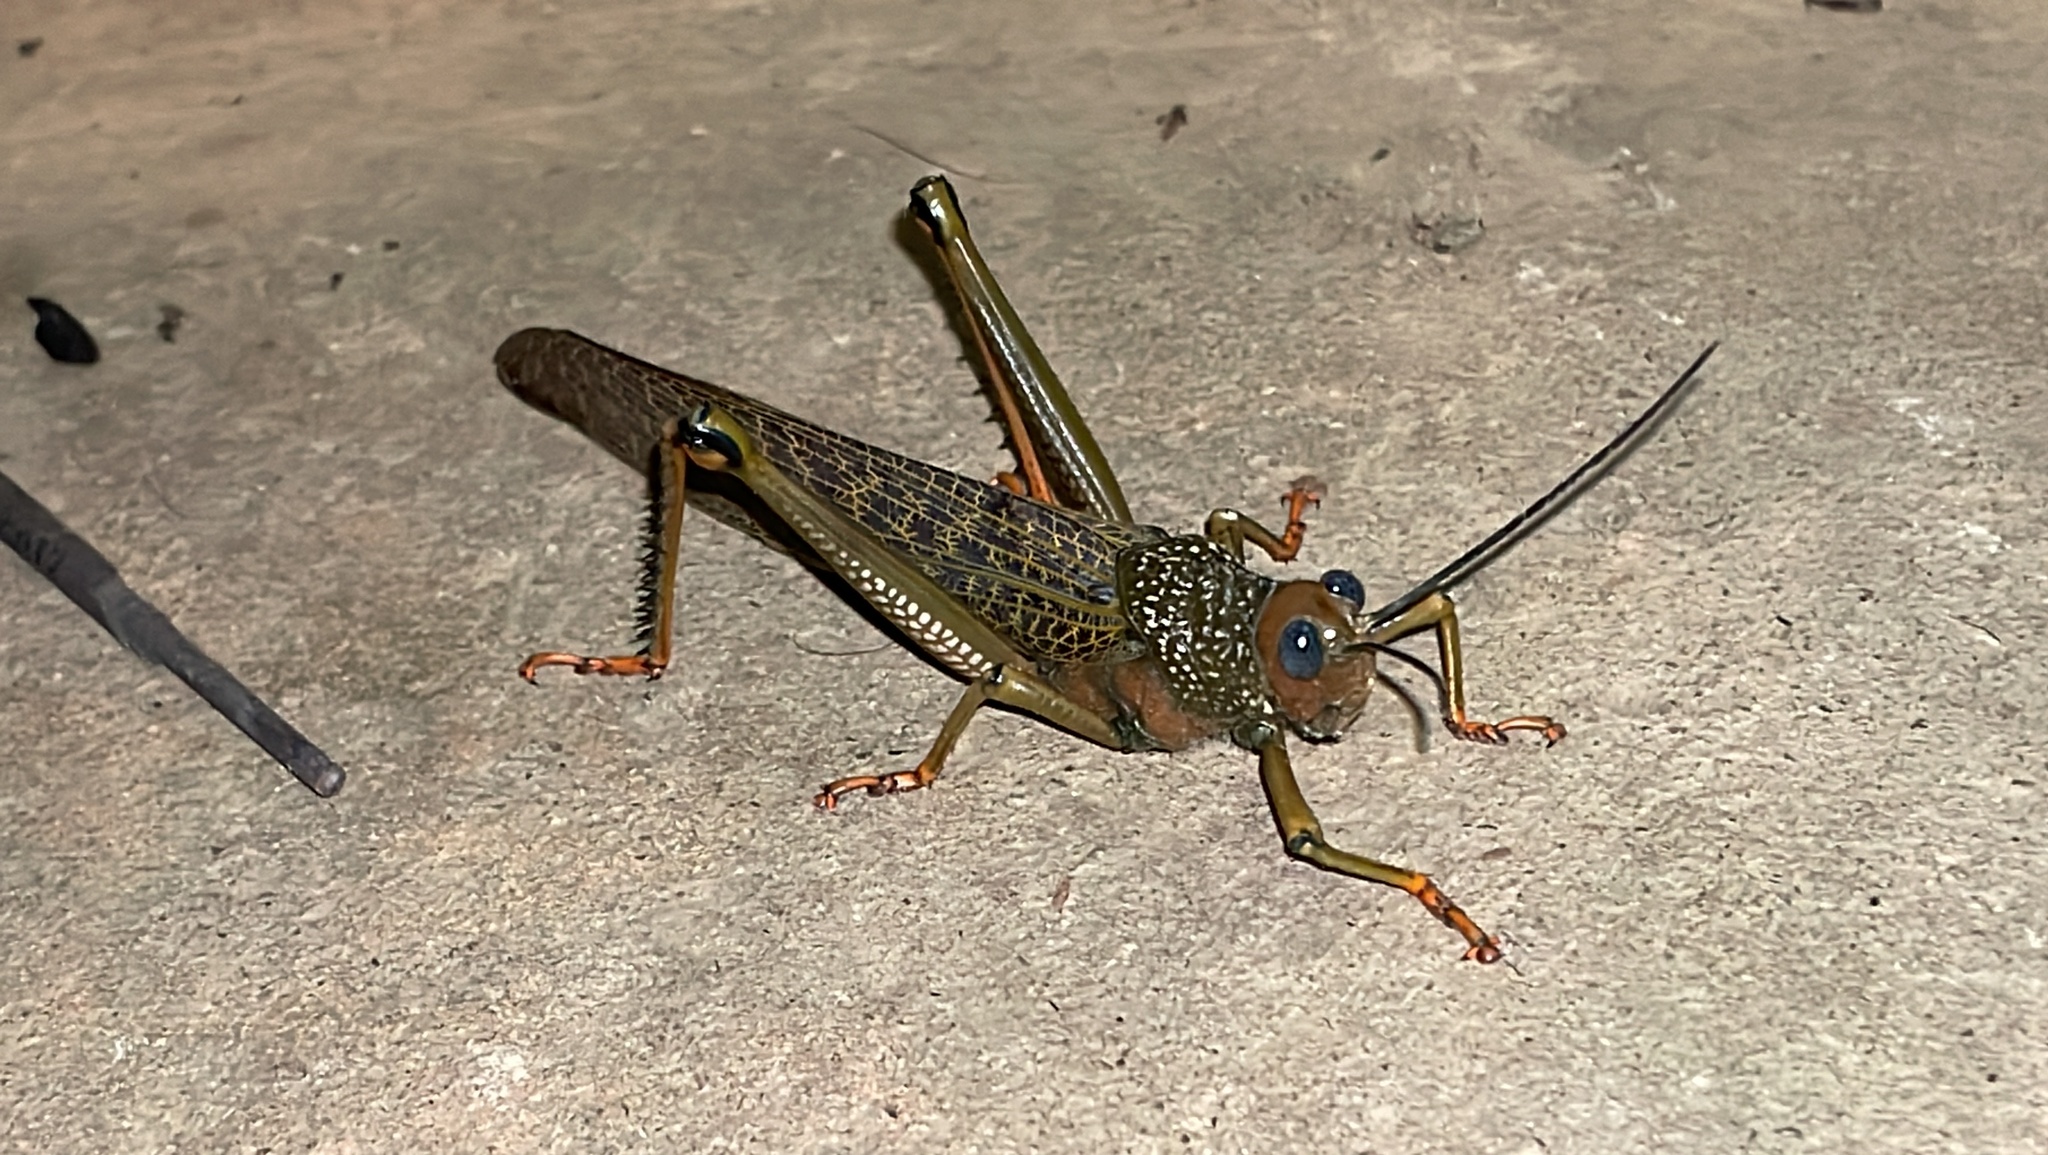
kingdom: Animalia
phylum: Arthropoda
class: Insecta
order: Orthoptera
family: Romaleidae
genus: Tropidacris
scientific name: Tropidacris cristata
